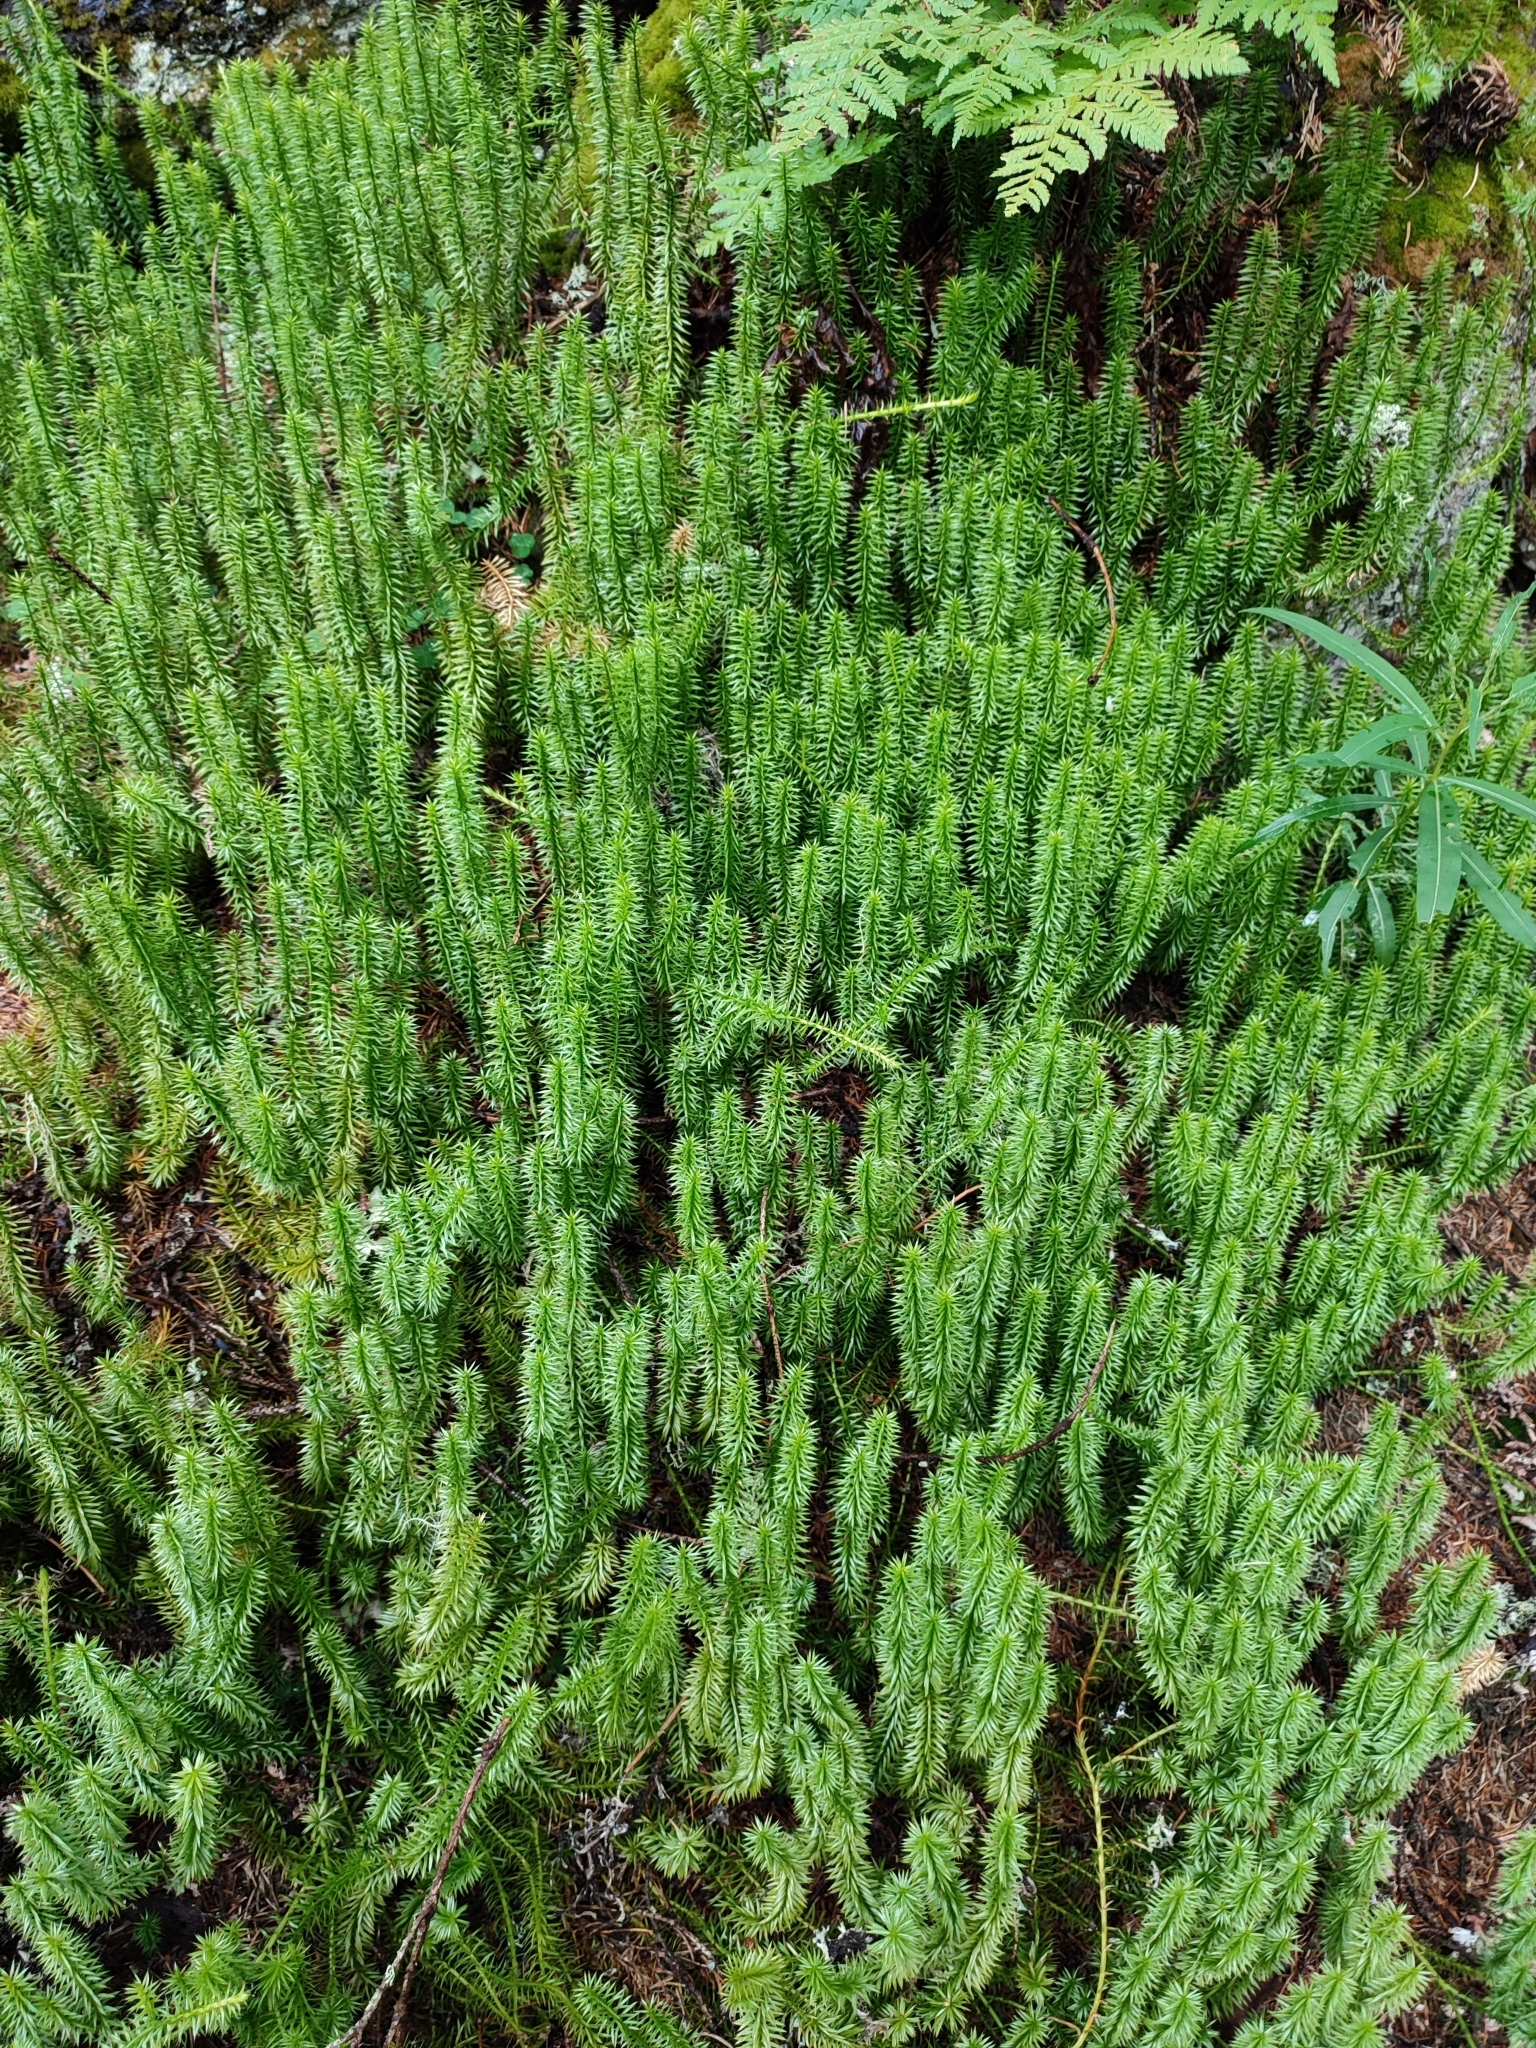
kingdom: Plantae
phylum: Tracheophyta
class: Lycopodiopsida
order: Lycopodiales
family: Lycopodiaceae
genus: Spinulum
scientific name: Spinulum annotinum
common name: Interrupted club-moss
